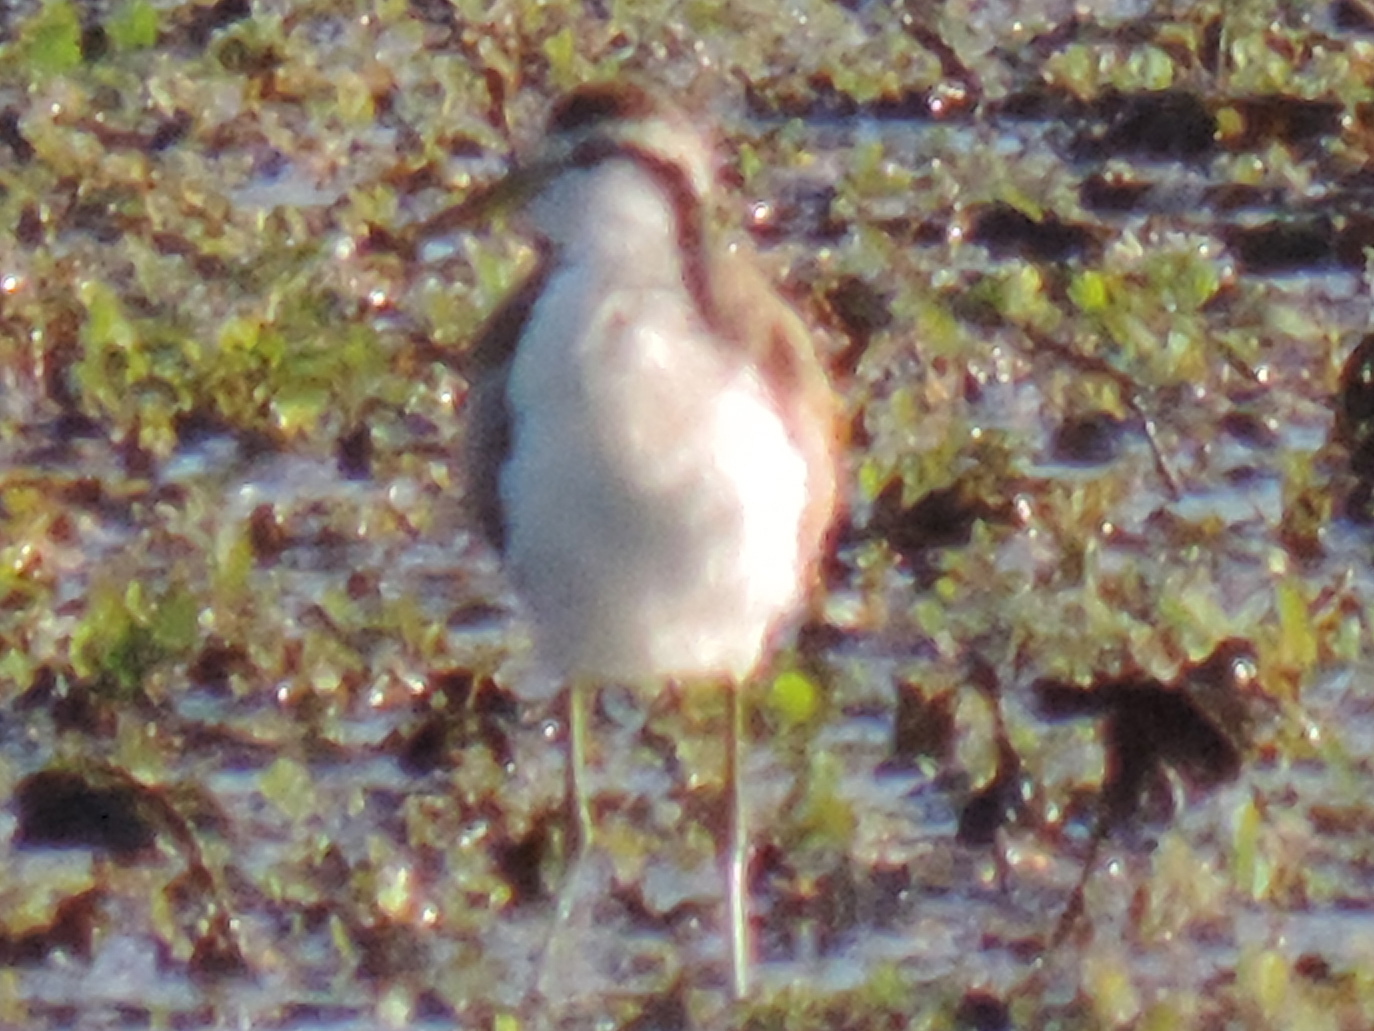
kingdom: Animalia
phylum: Chordata
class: Aves
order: Charadriiformes
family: Jacanidae
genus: Jacana
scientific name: Jacana spinosa
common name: Northern jacana
